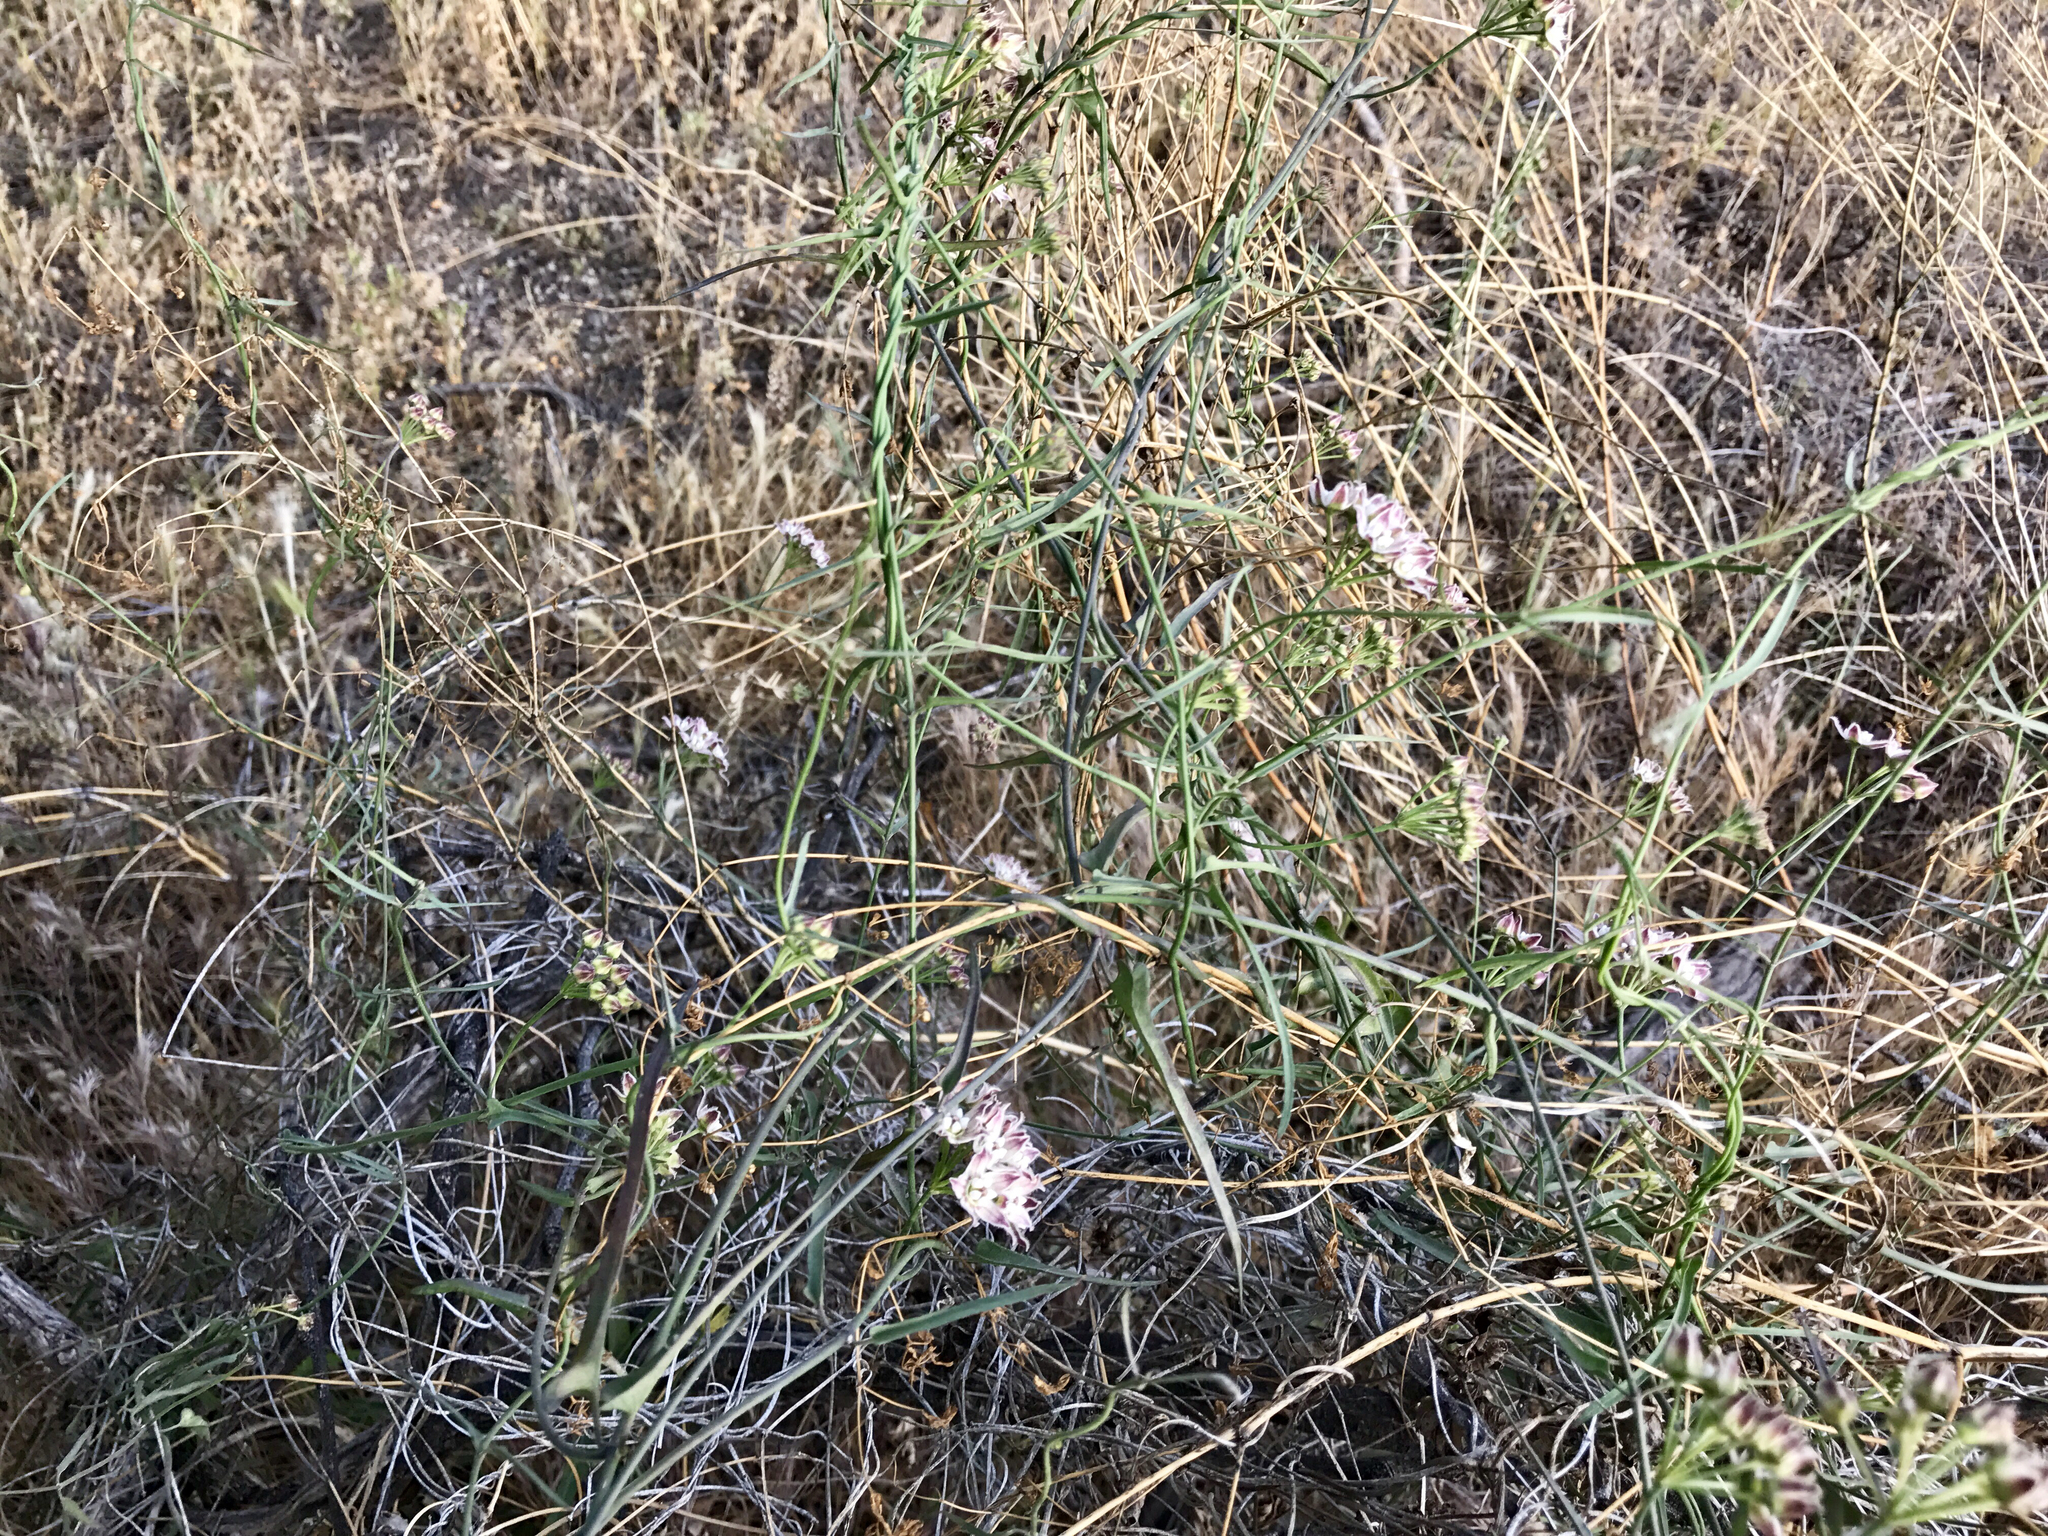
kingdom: Plantae
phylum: Tracheophyta
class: Magnoliopsida
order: Gentianales
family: Apocynaceae
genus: Funastrum
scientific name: Funastrum heterophyllum
